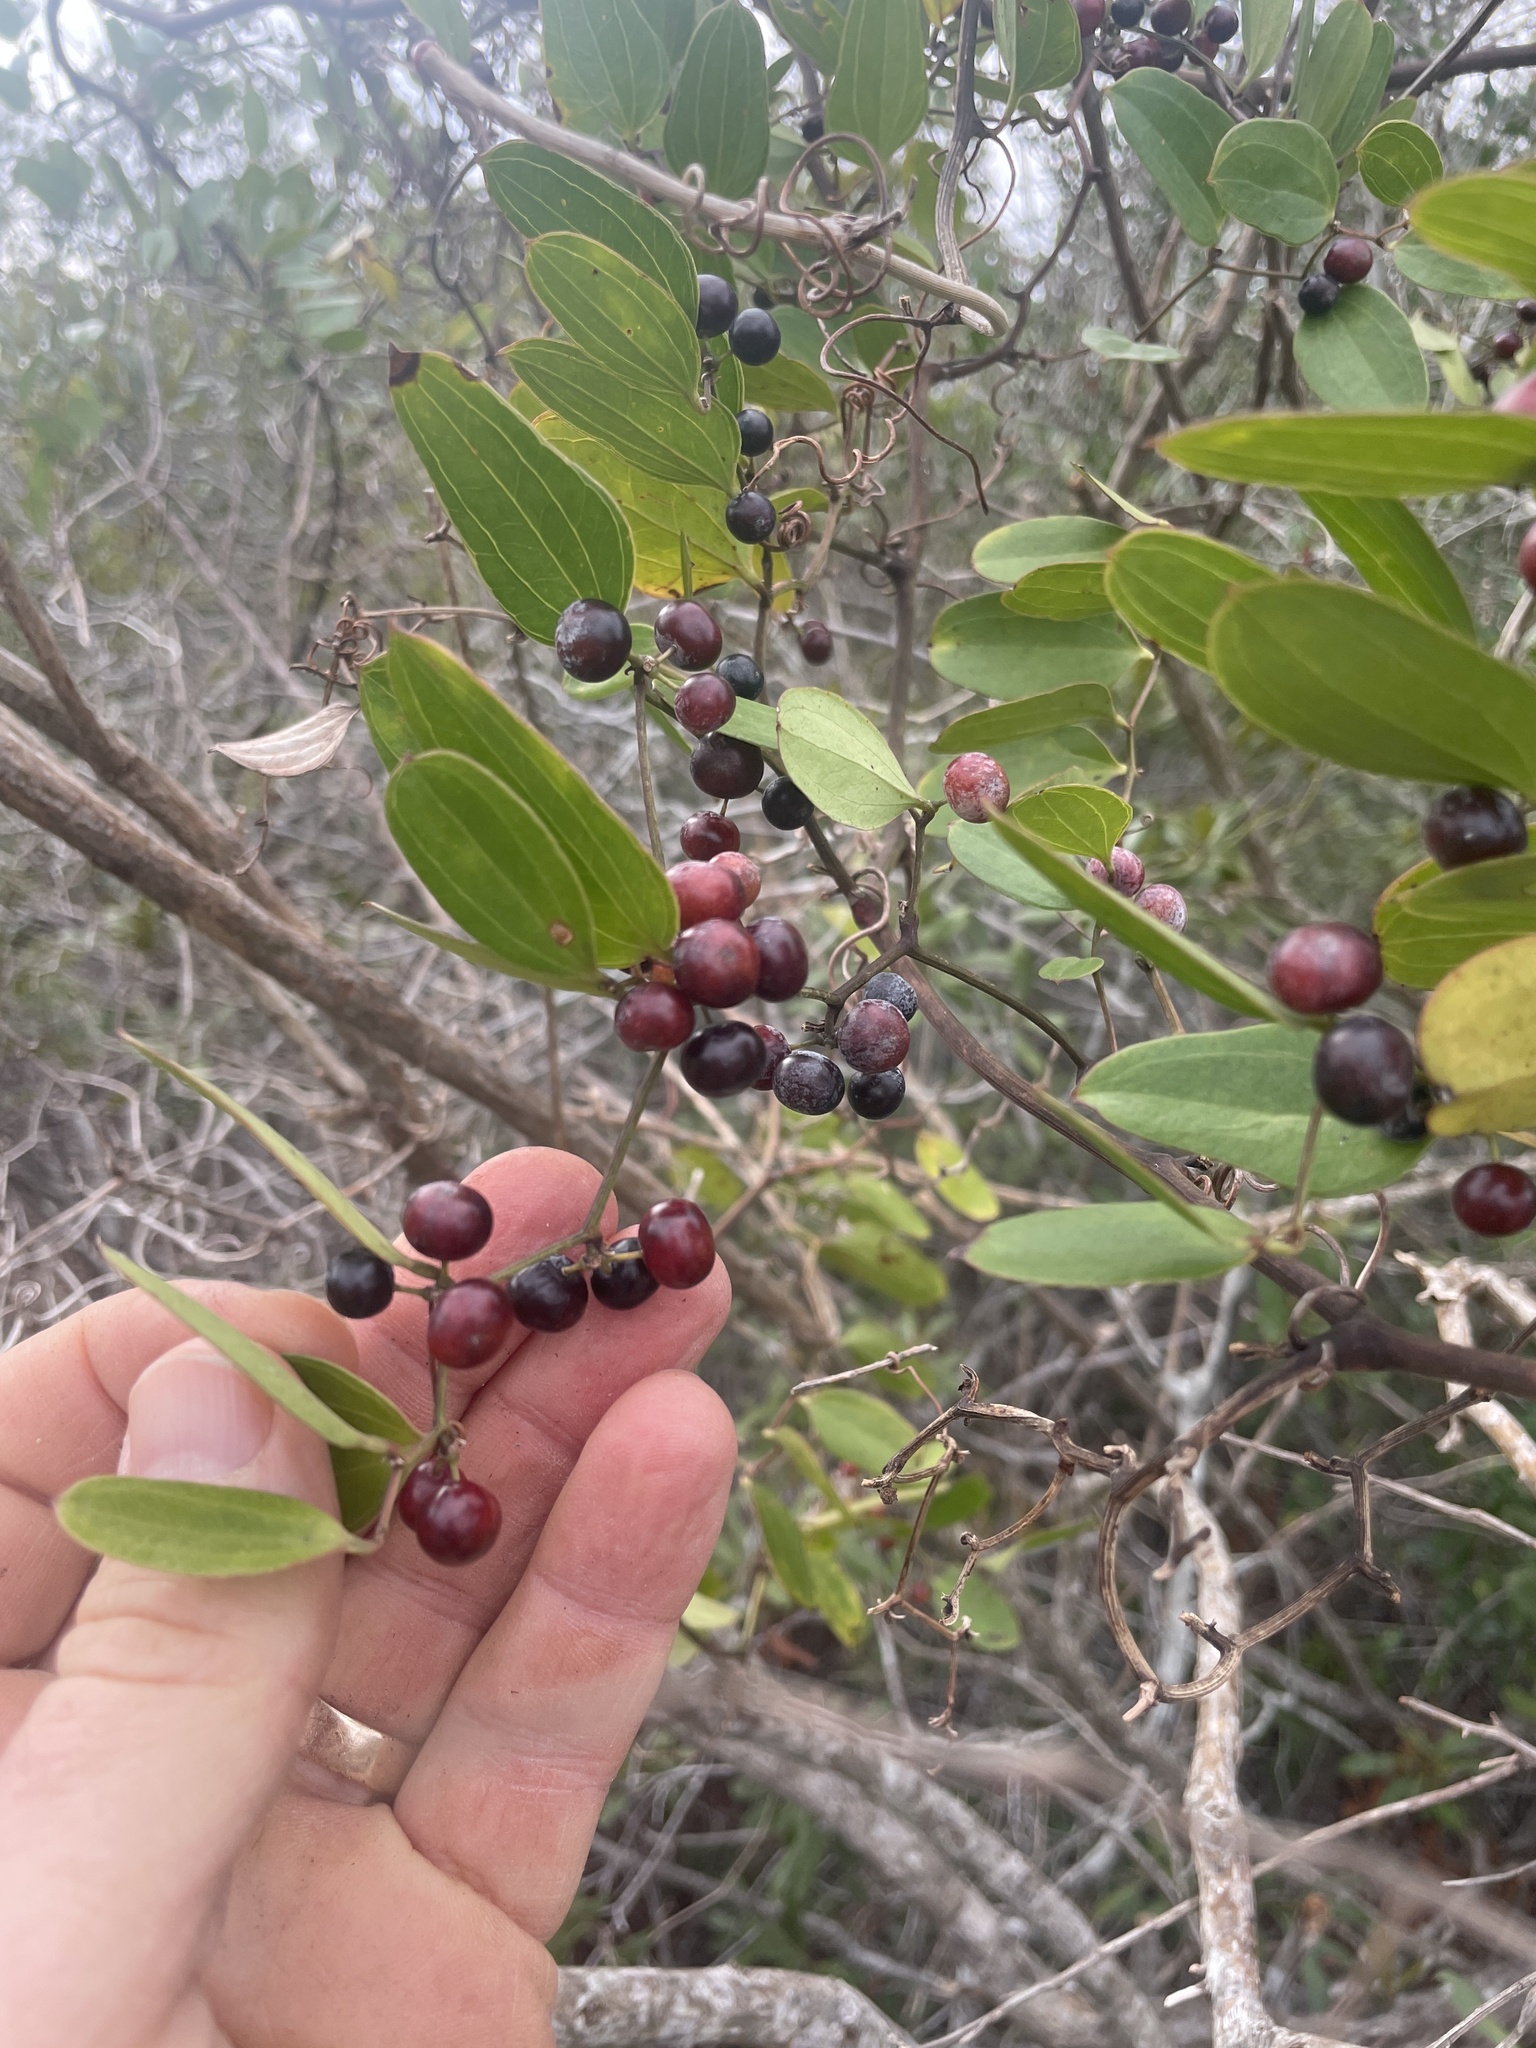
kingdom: Plantae
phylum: Tracheophyta
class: Liliopsida
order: Liliales
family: Smilacaceae
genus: Smilax
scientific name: Smilax auriculata
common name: Wild bamboo
